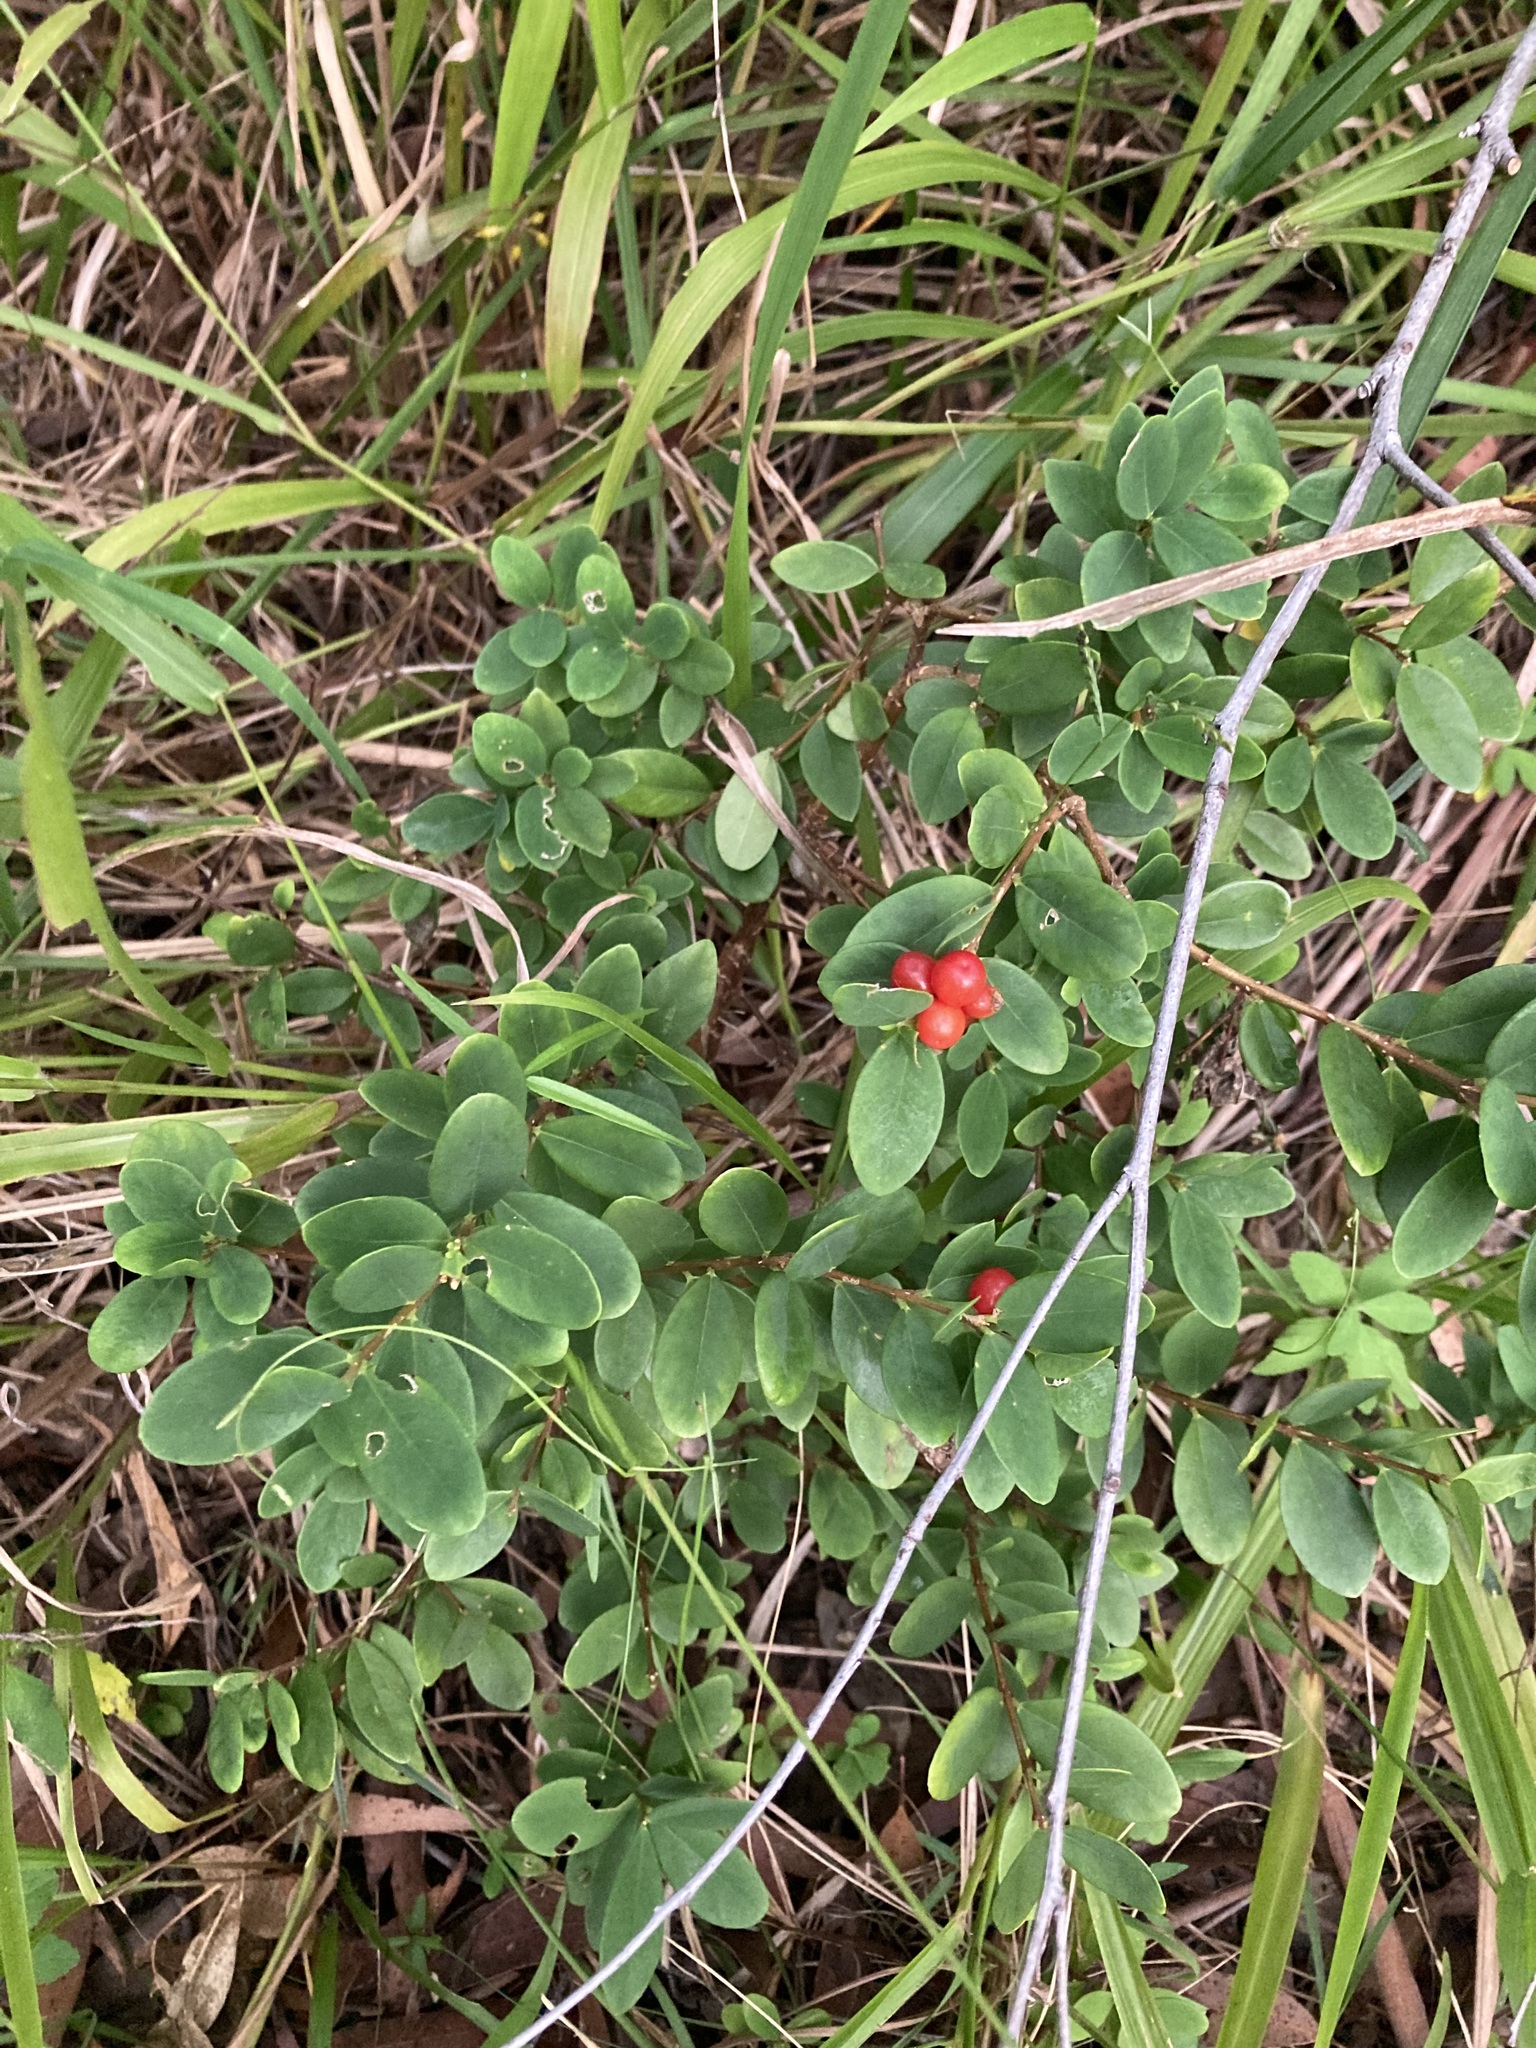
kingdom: Plantae
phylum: Tracheophyta
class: Magnoliopsida
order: Malvales
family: Thymelaeaceae
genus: Wikstroemia
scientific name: Wikstroemia indica
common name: Tiebush
